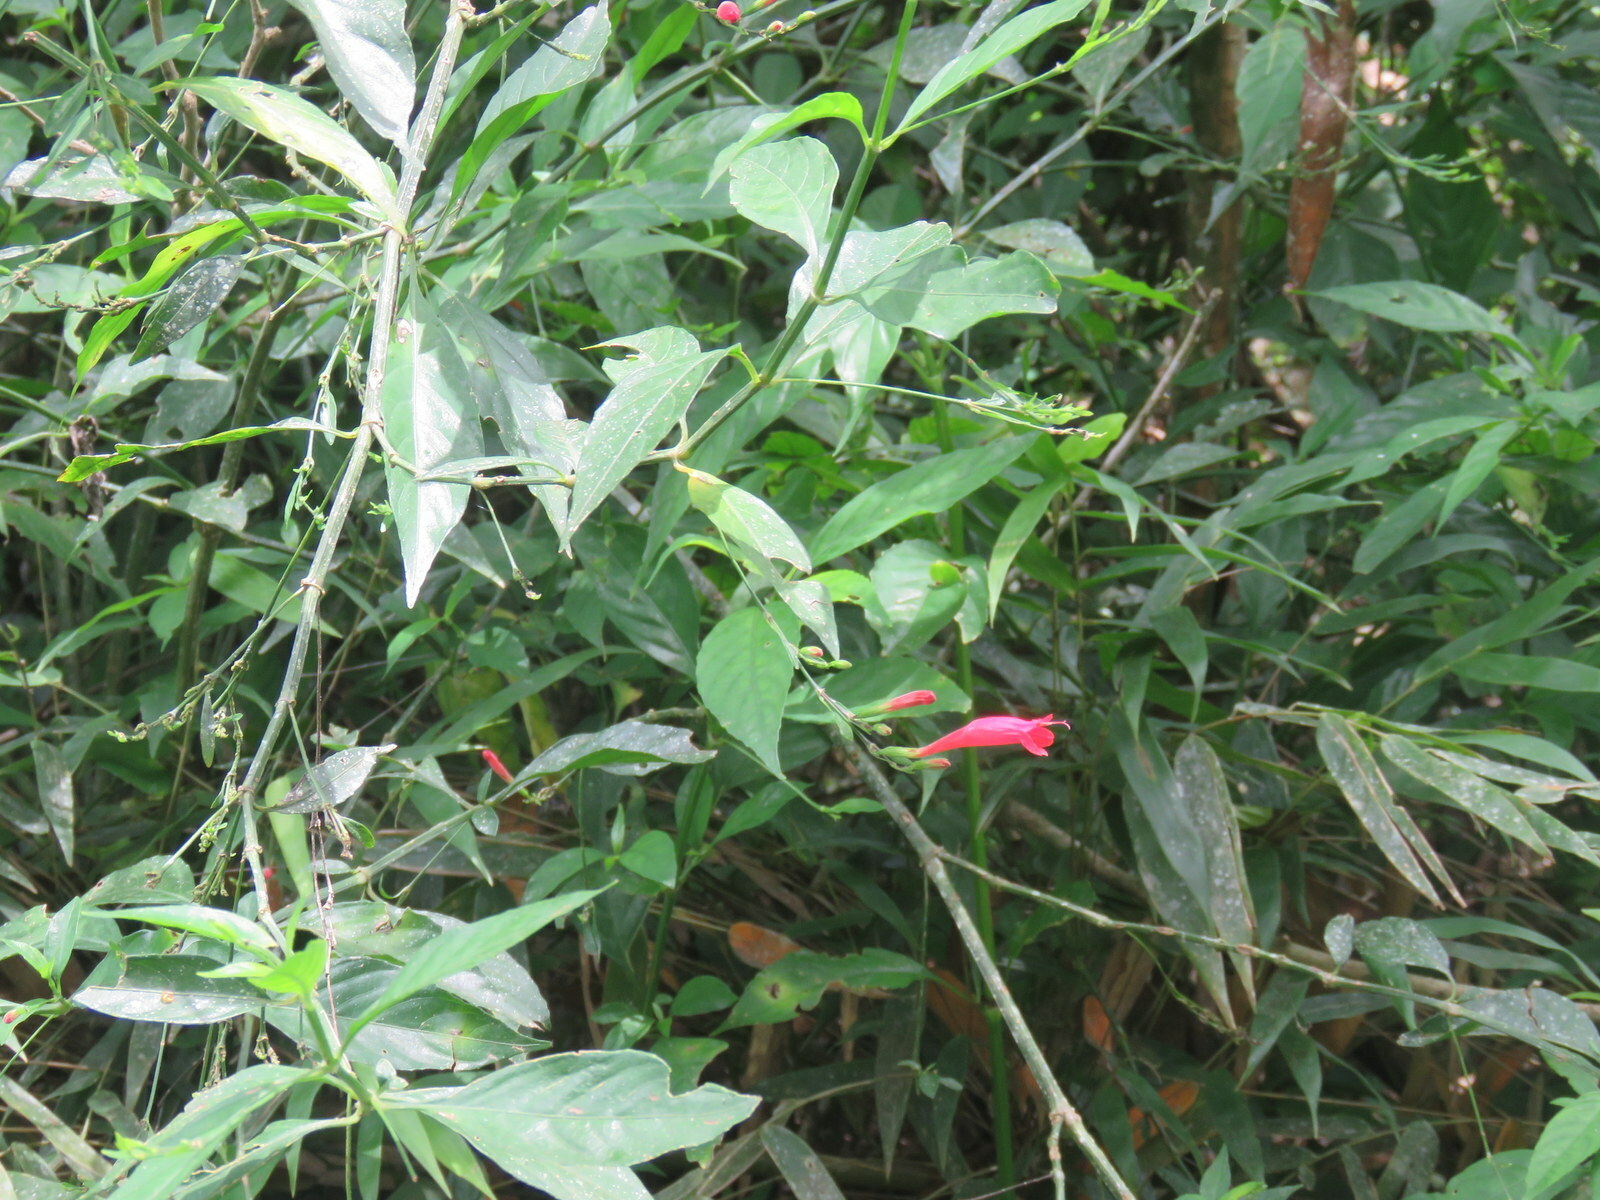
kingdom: Plantae
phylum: Tracheophyta
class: Magnoliopsida
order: Lamiales
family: Acanthaceae
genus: Ruellia
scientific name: Ruellia angustiflora
